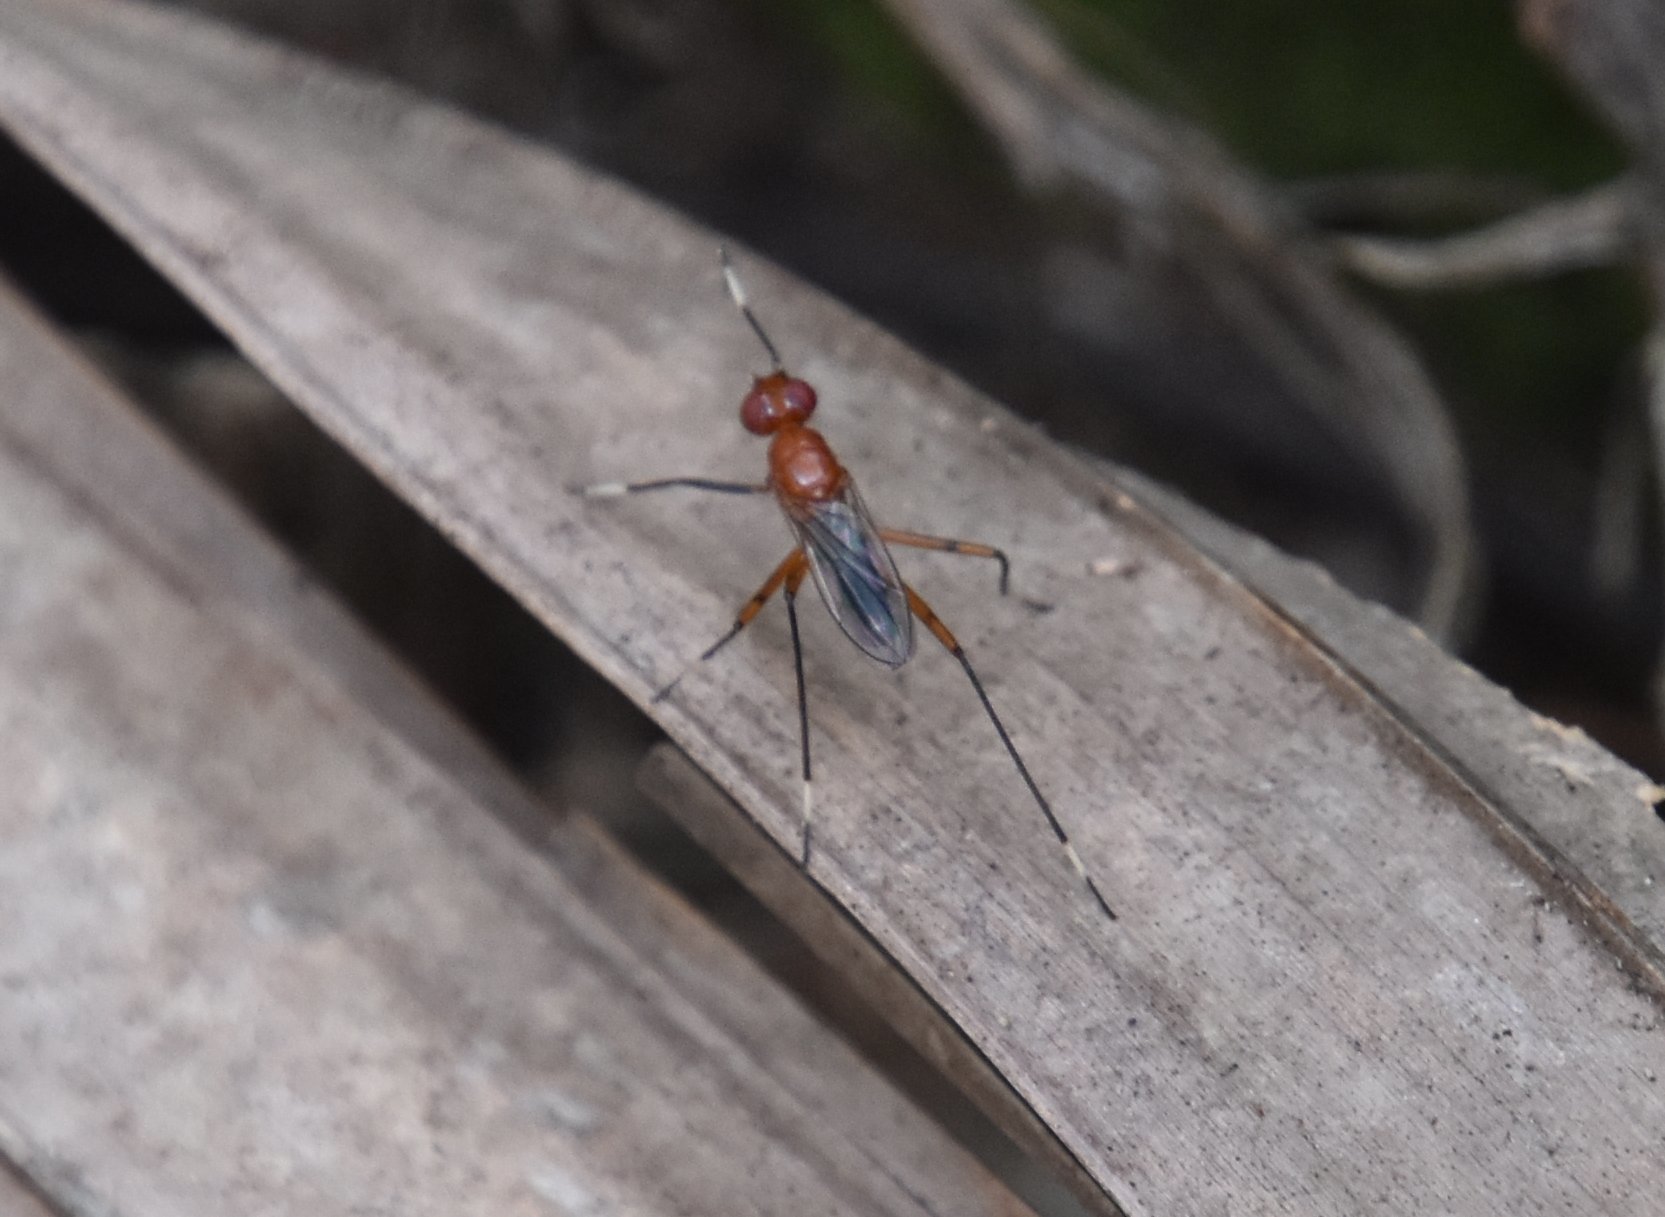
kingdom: Animalia
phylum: Arthropoda
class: Insecta
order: Diptera
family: Micropezidae
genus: Grallipeza
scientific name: Grallipeza nebulosa
